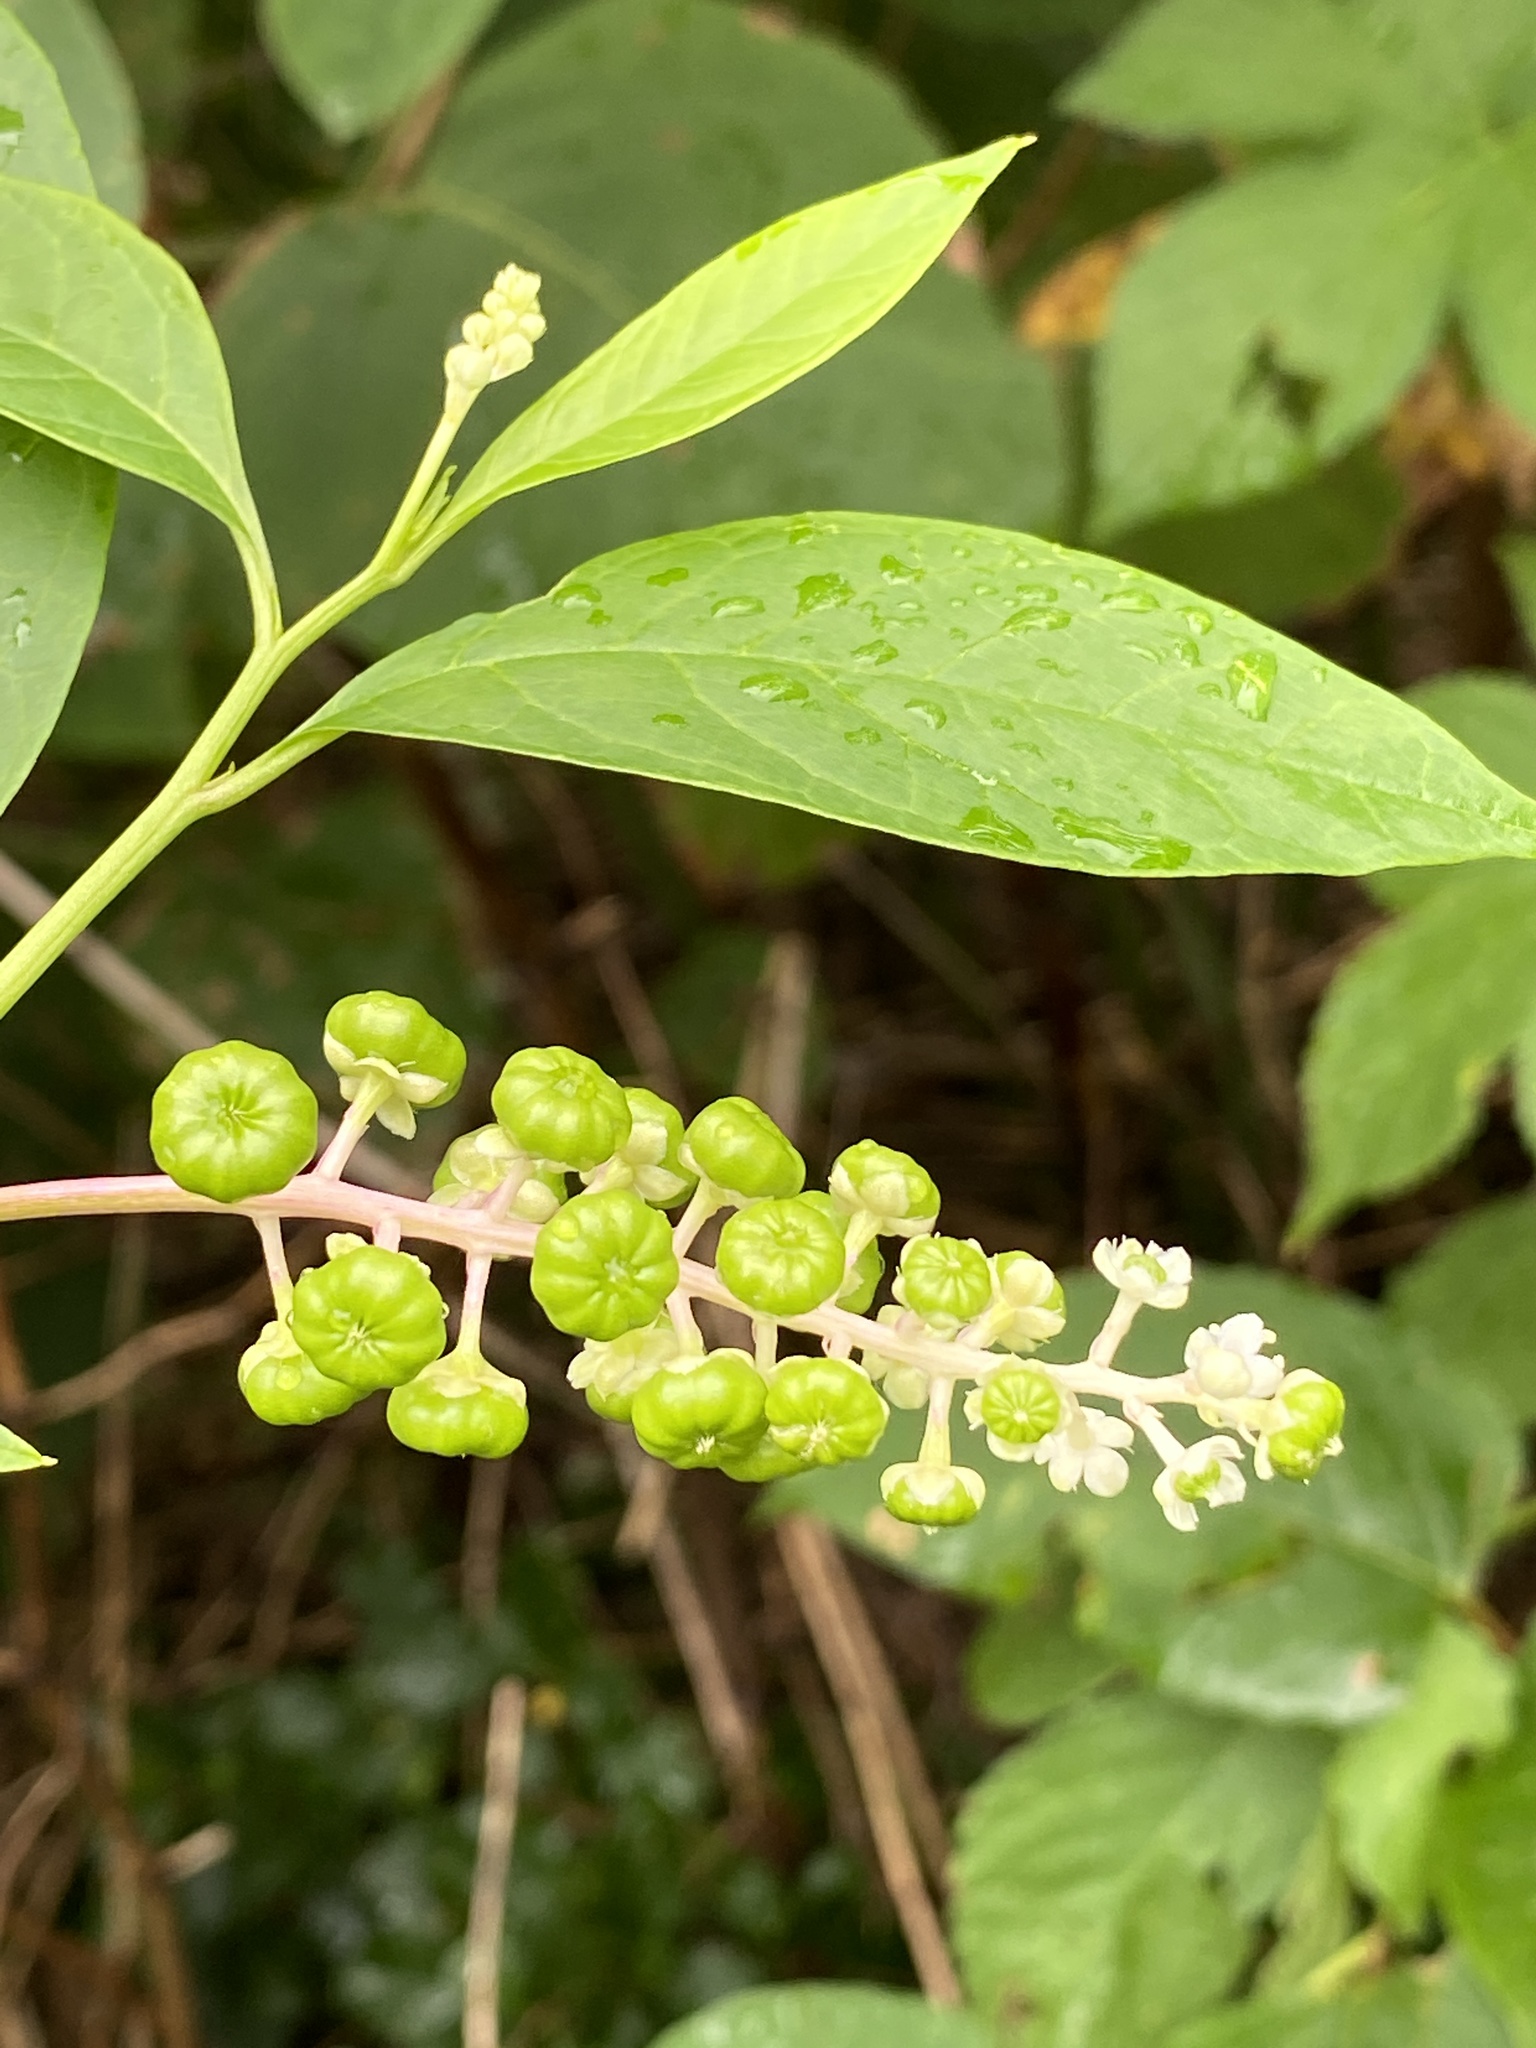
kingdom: Plantae
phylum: Tracheophyta
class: Magnoliopsida
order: Caryophyllales
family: Phytolaccaceae
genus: Phytolacca
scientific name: Phytolacca americana
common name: American pokeweed
